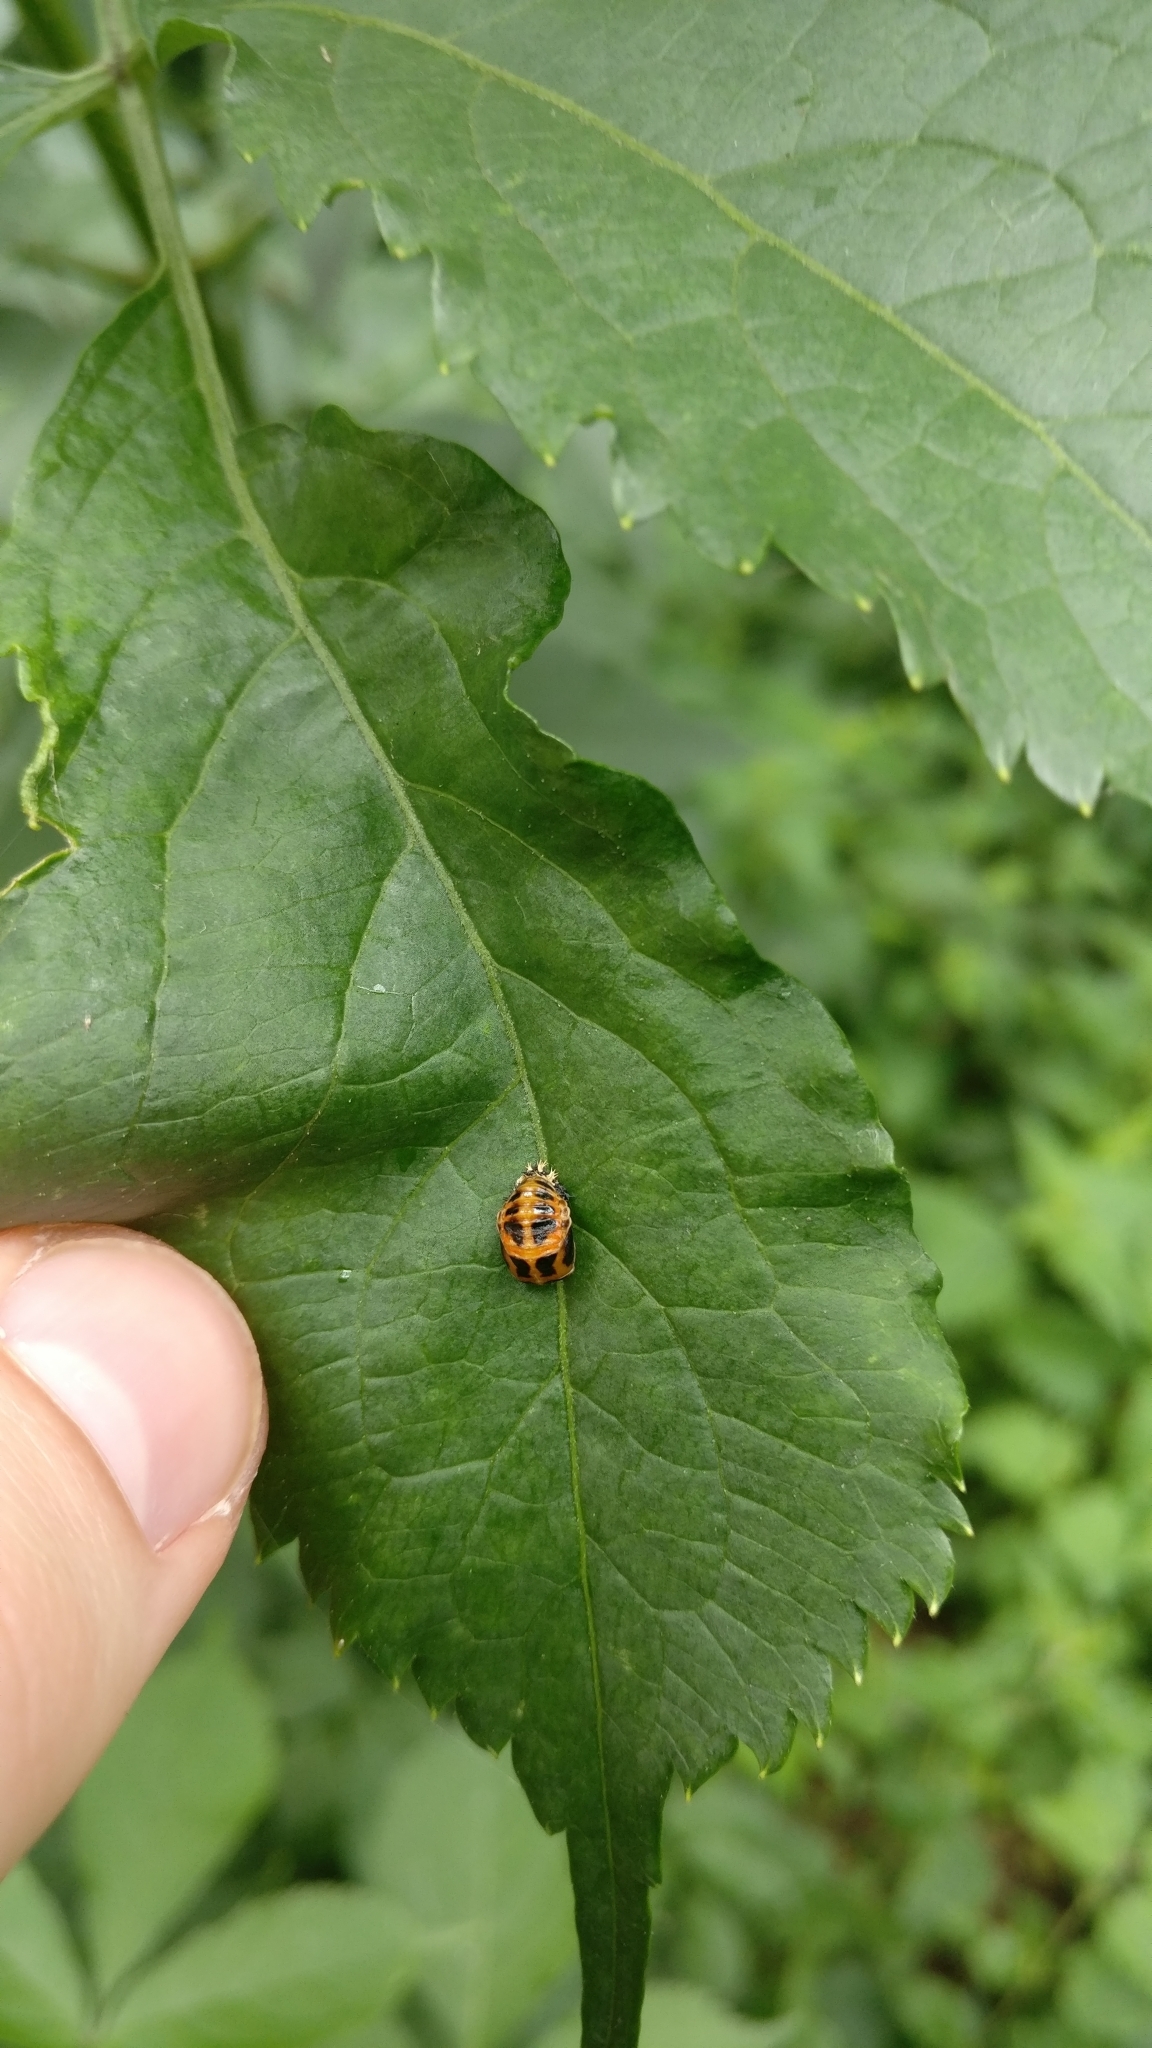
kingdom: Animalia
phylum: Arthropoda
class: Insecta
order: Coleoptera
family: Coccinellidae
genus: Harmonia
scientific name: Harmonia axyridis
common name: Harlequin ladybird
